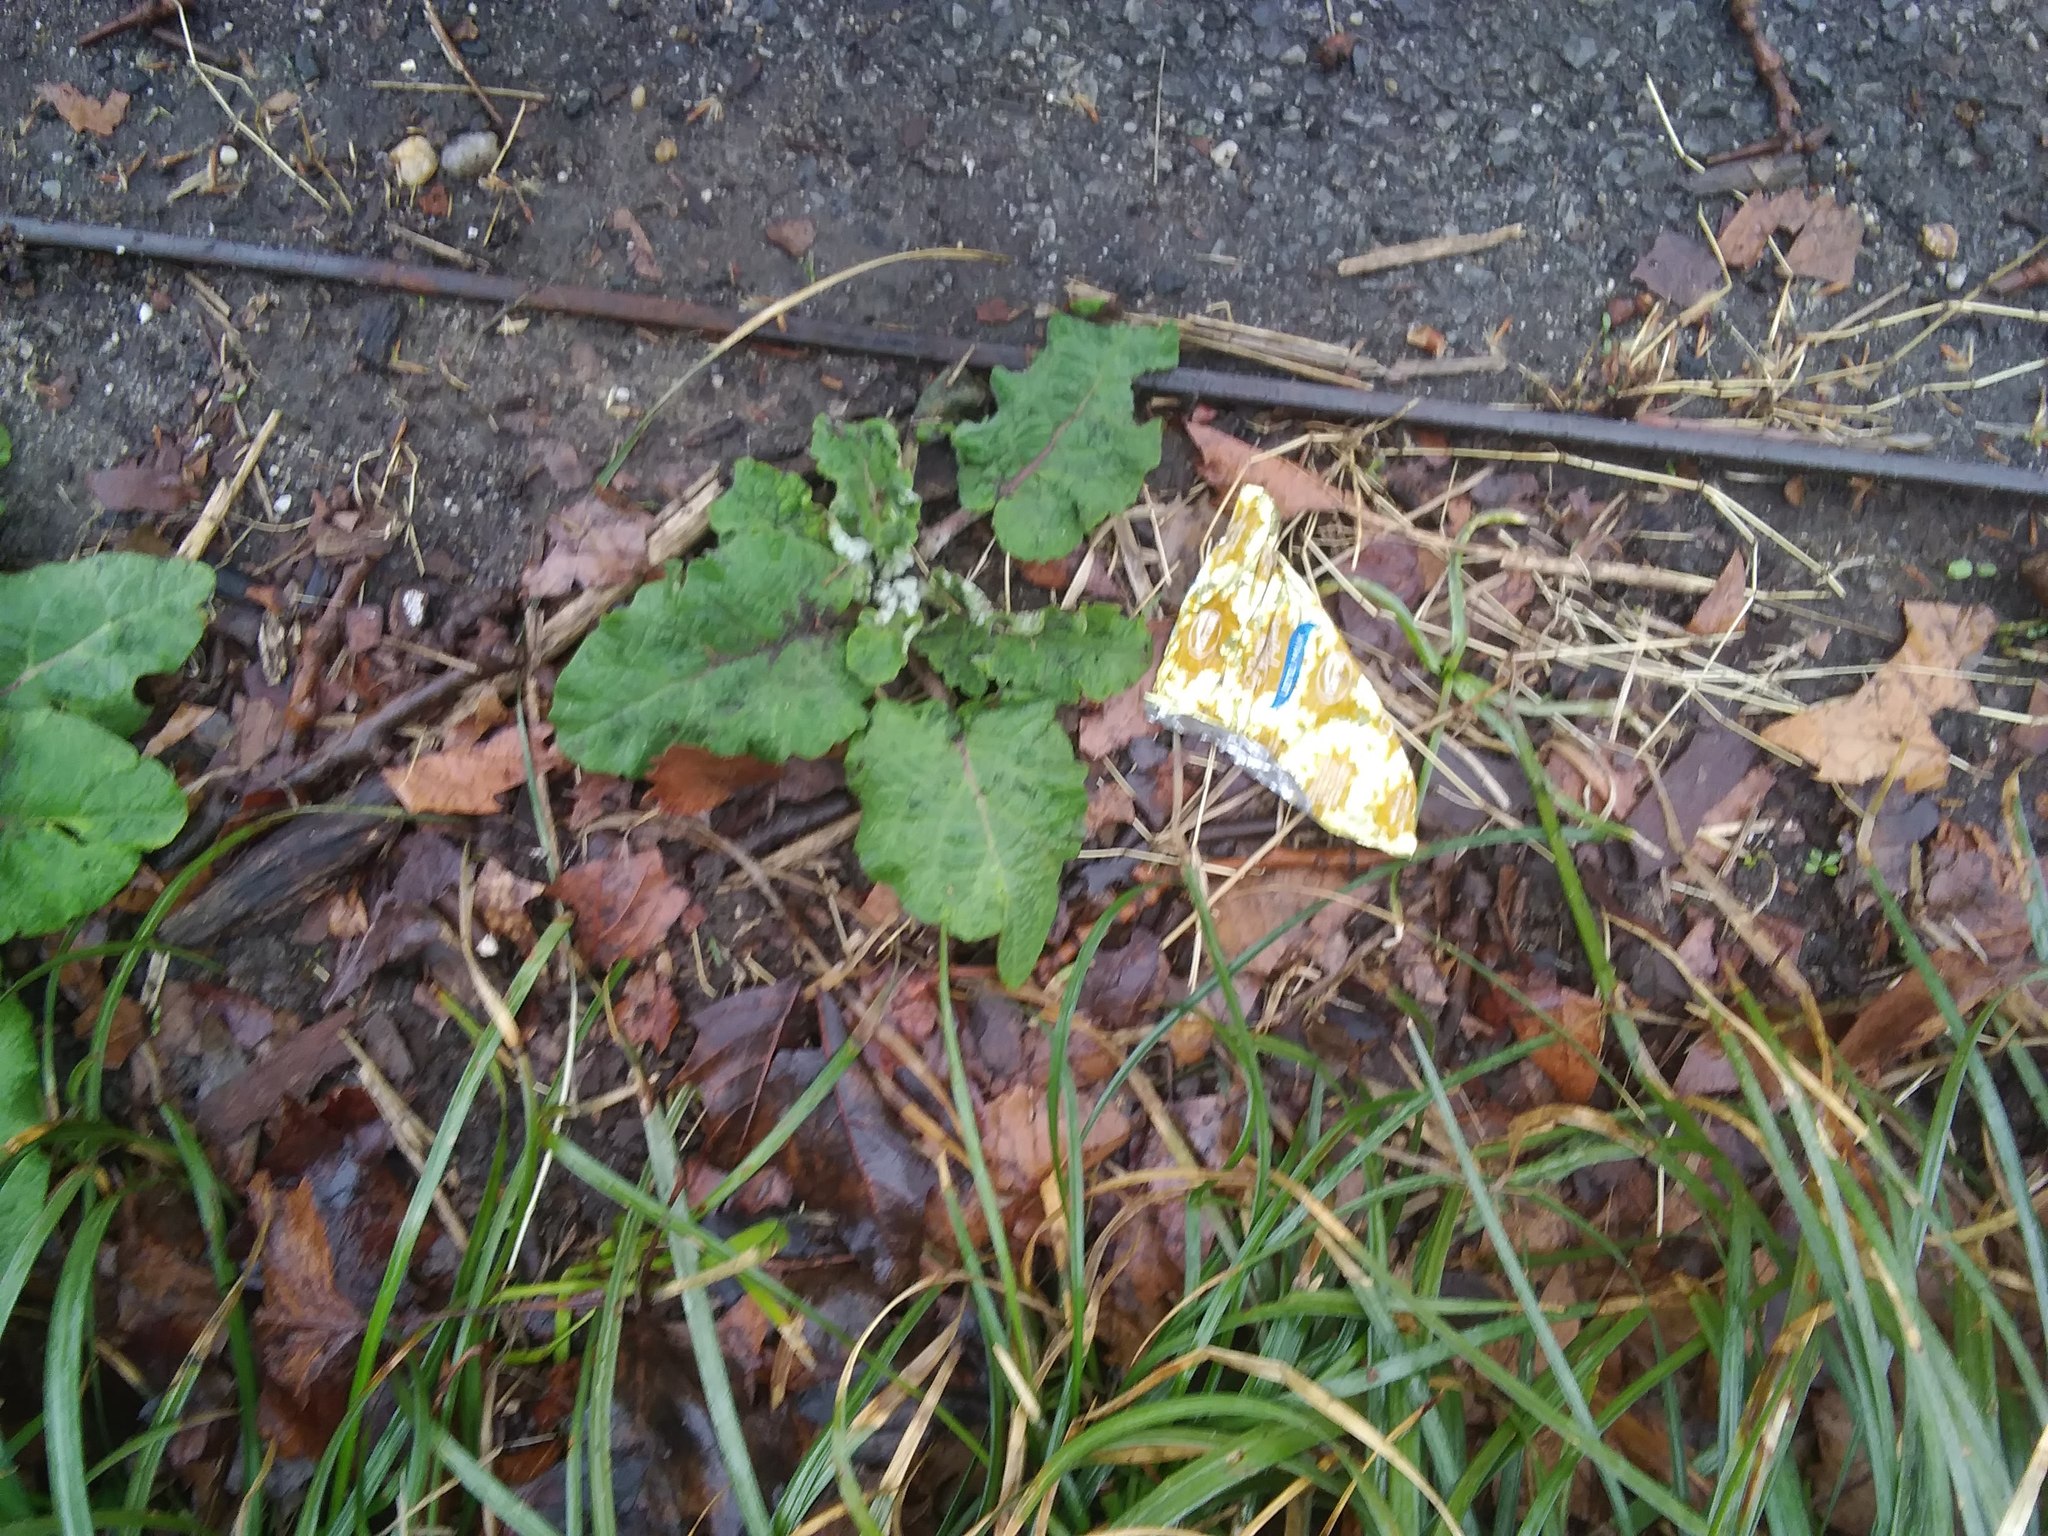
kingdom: Plantae
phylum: Tracheophyta
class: Magnoliopsida
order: Asterales
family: Asteraceae
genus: Arctium
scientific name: Arctium
